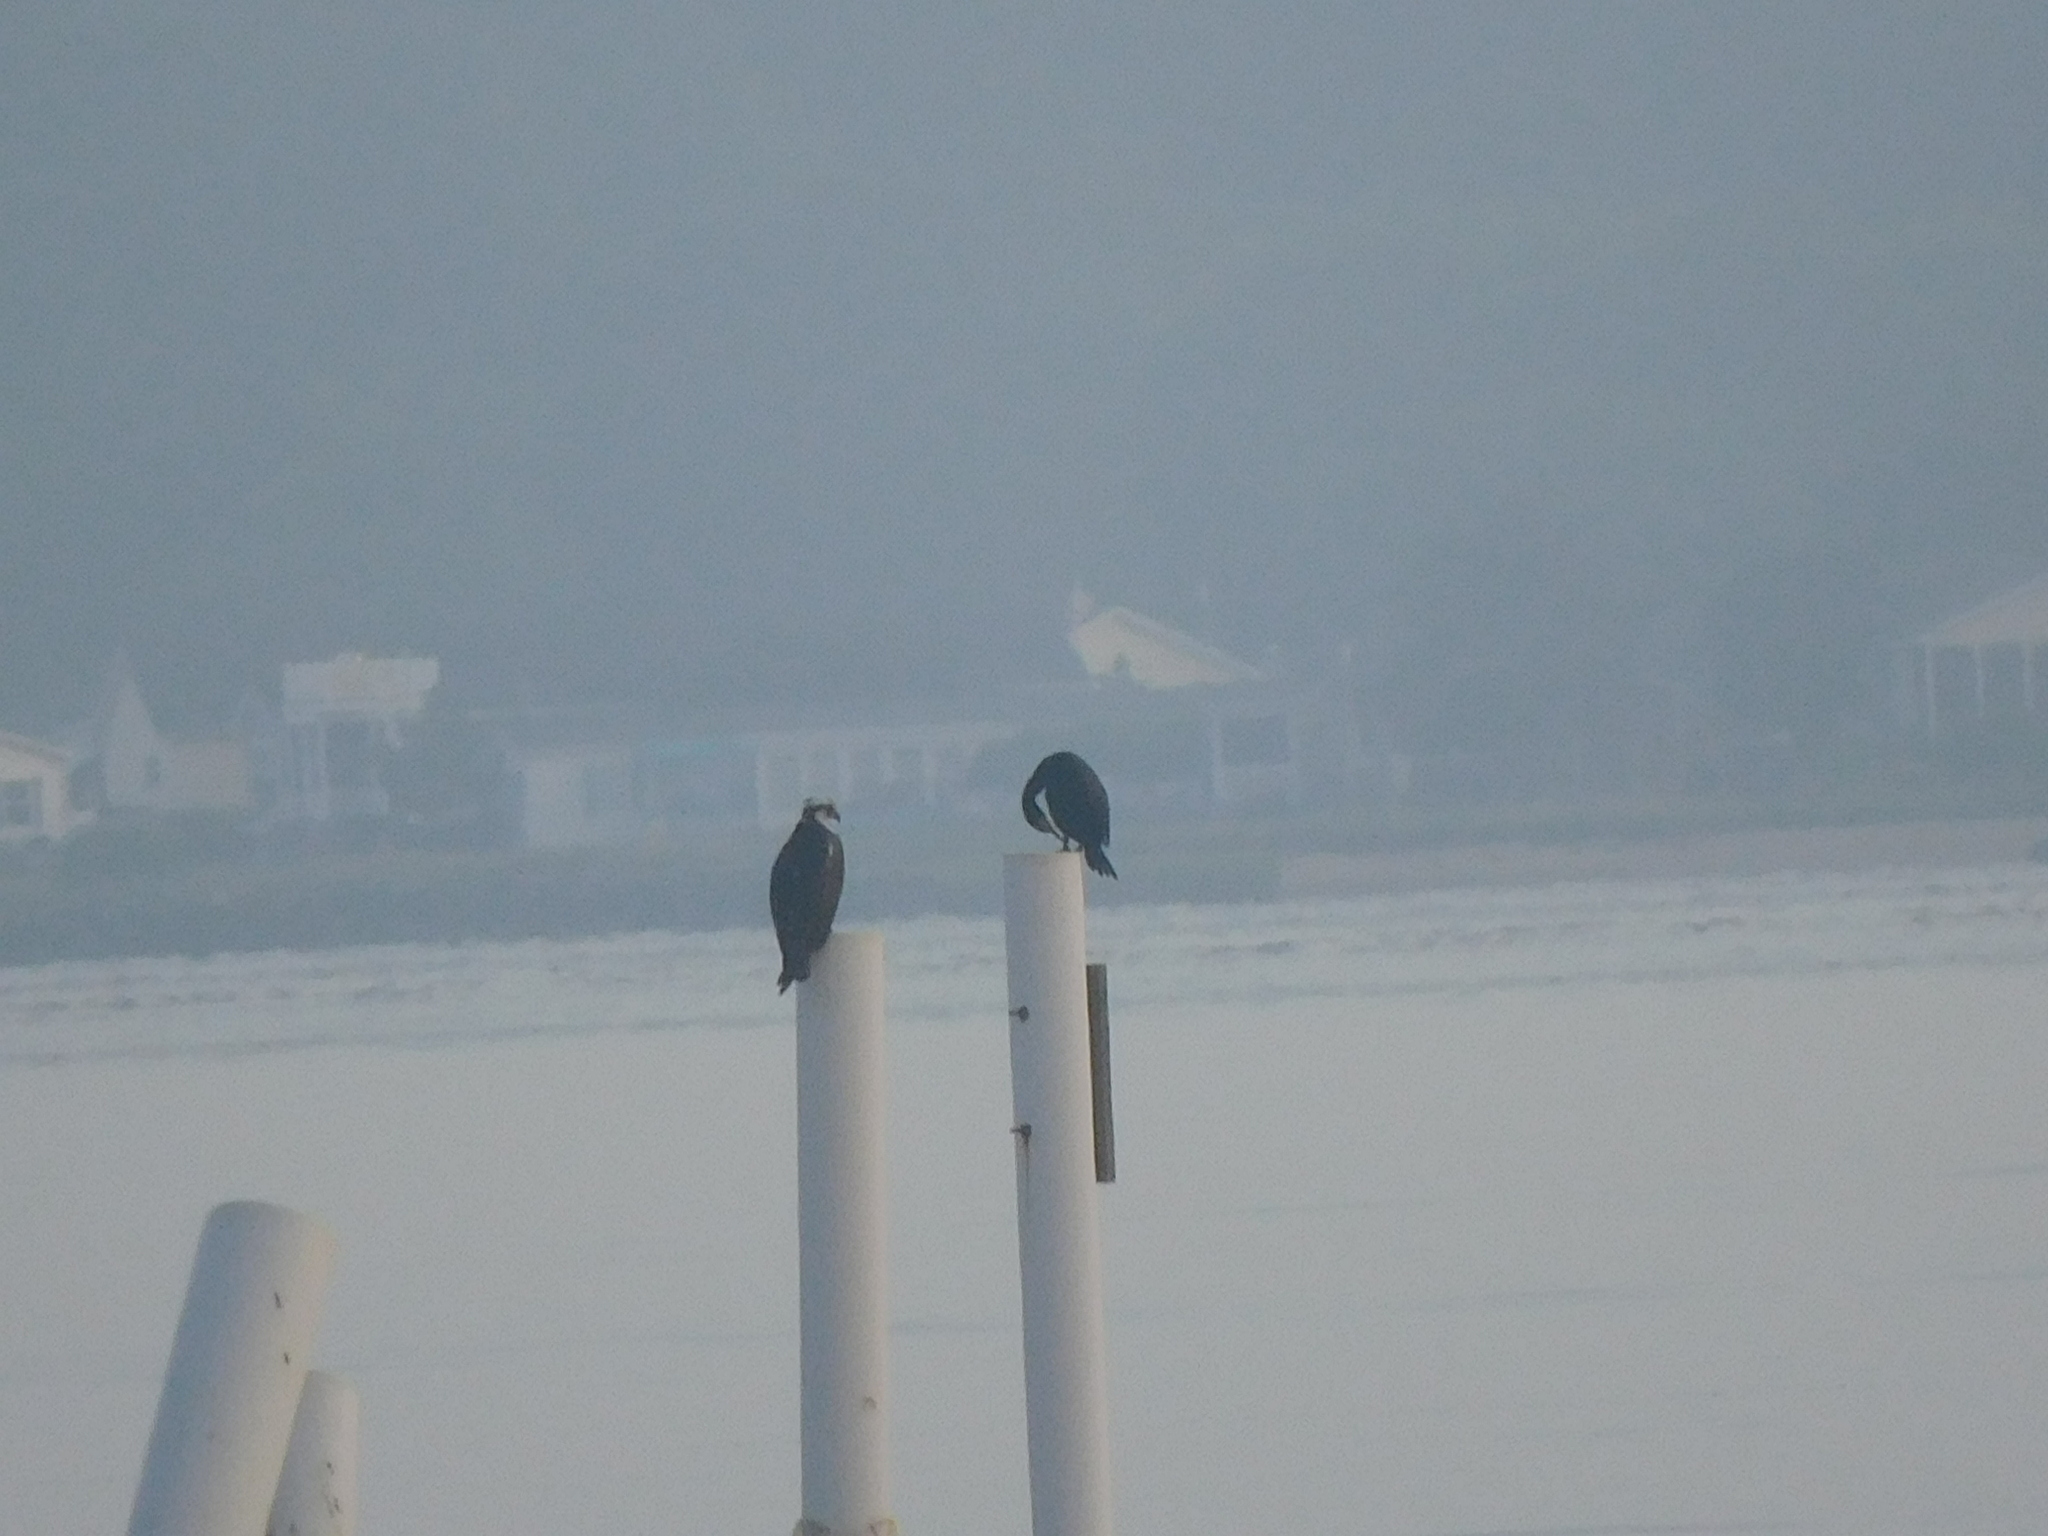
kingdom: Animalia
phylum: Chordata
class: Aves
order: Accipitriformes
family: Pandionidae
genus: Pandion
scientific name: Pandion haliaetus
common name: Osprey
